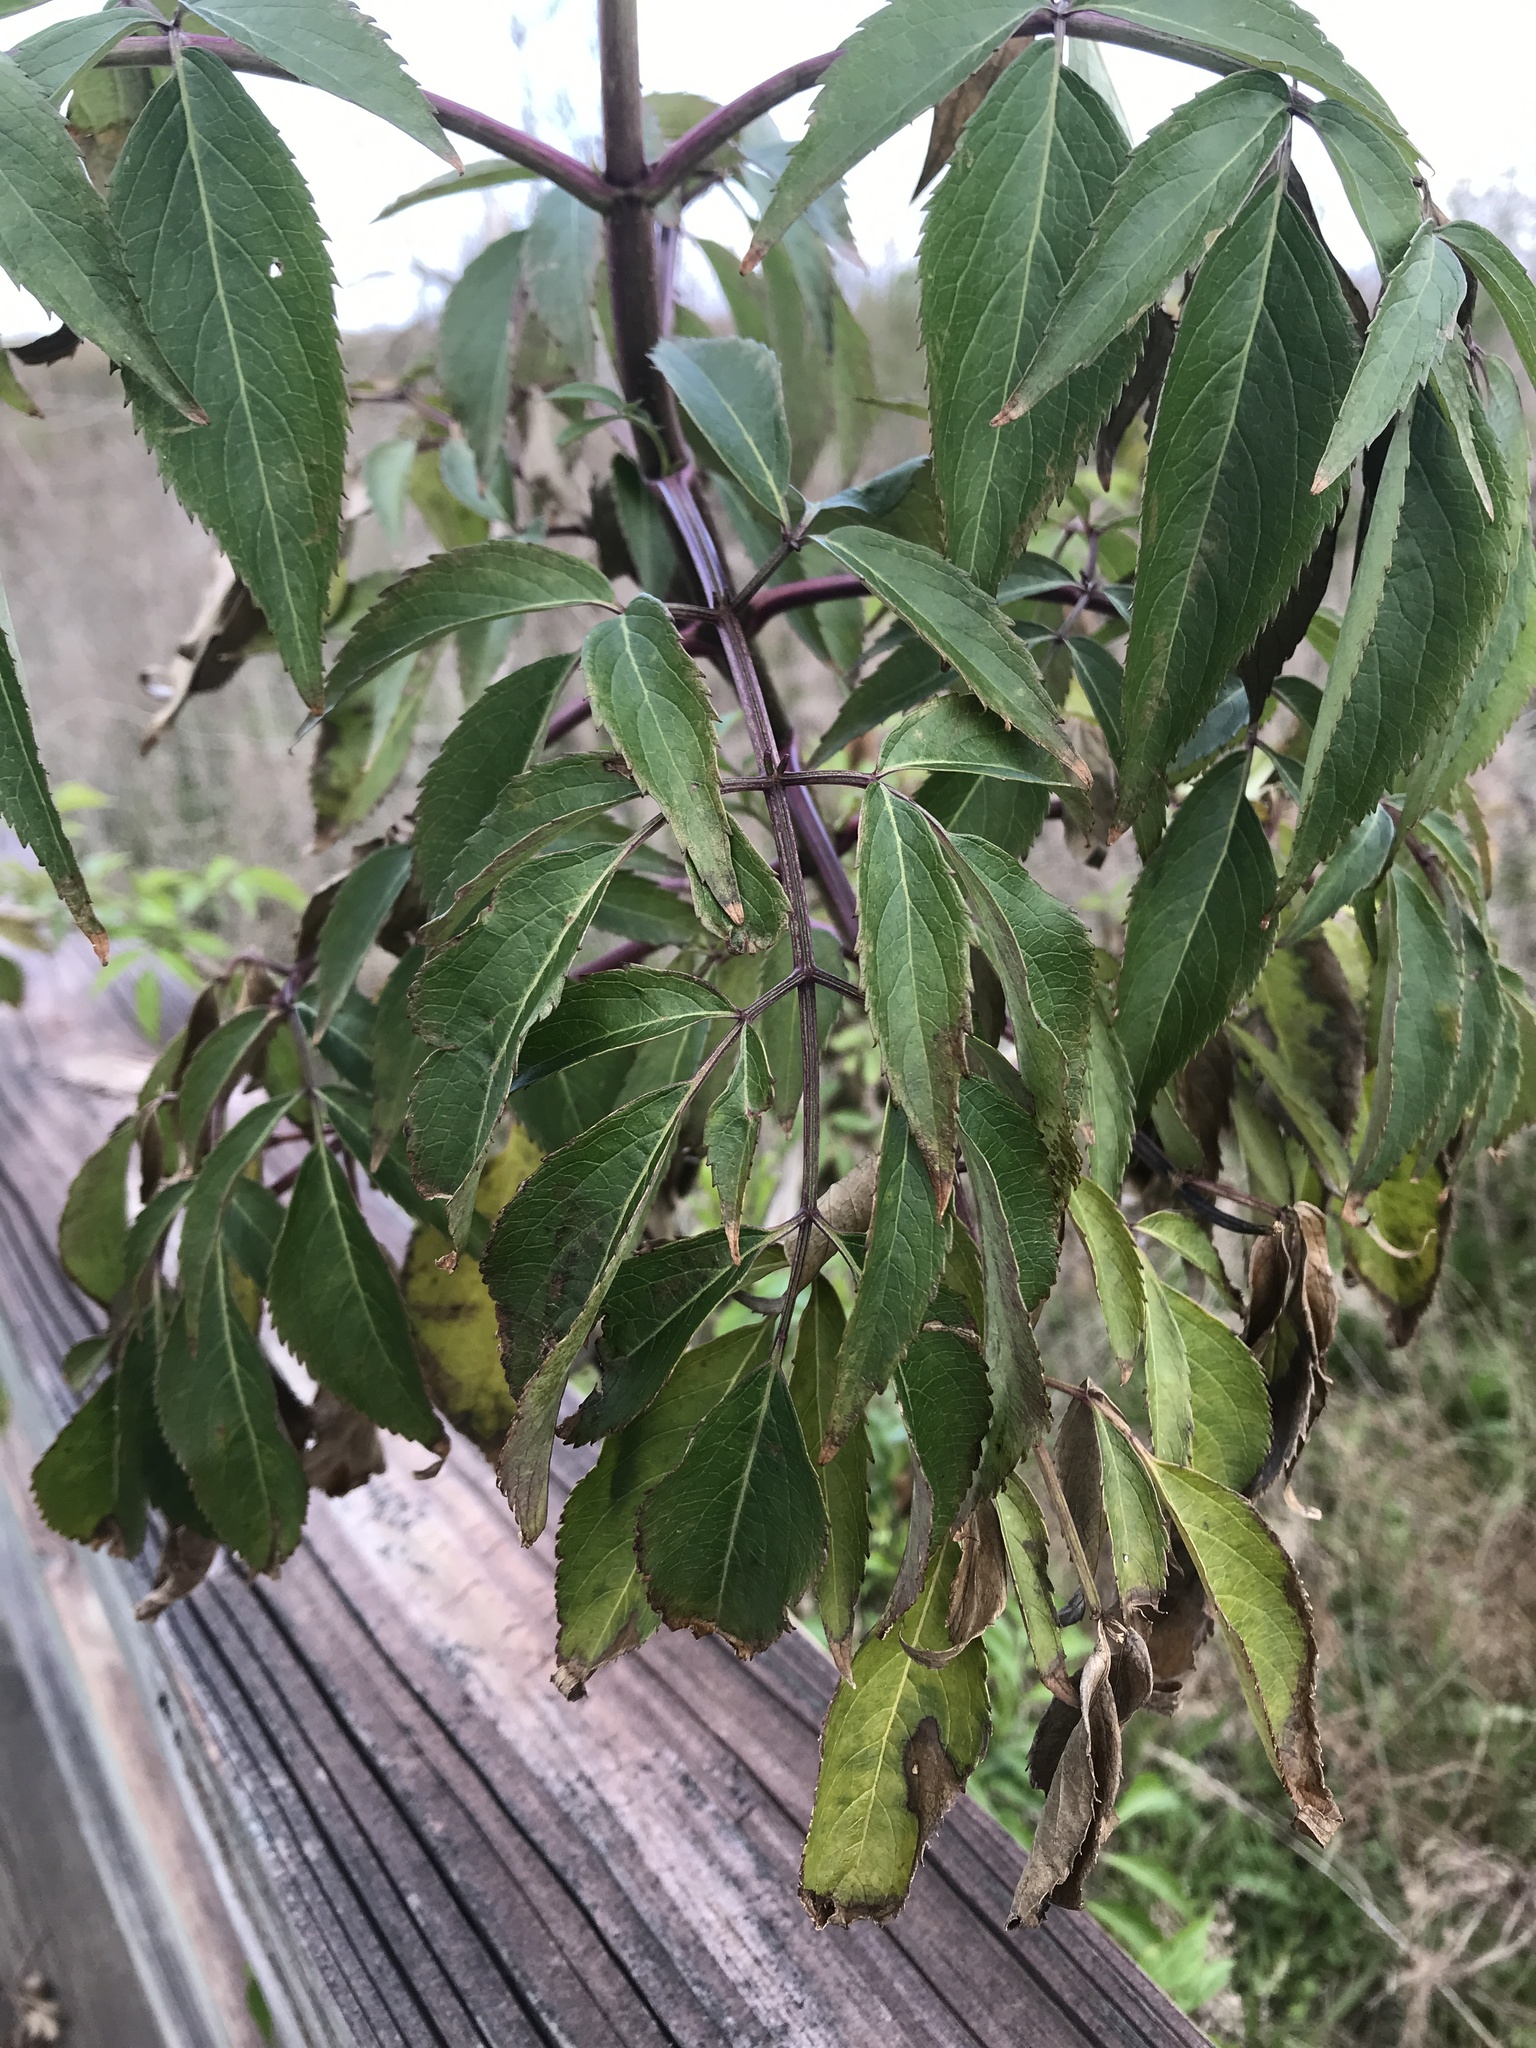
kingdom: Plantae
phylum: Tracheophyta
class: Magnoliopsida
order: Dipsacales
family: Viburnaceae
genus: Sambucus
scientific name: Sambucus canadensis
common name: American elder
